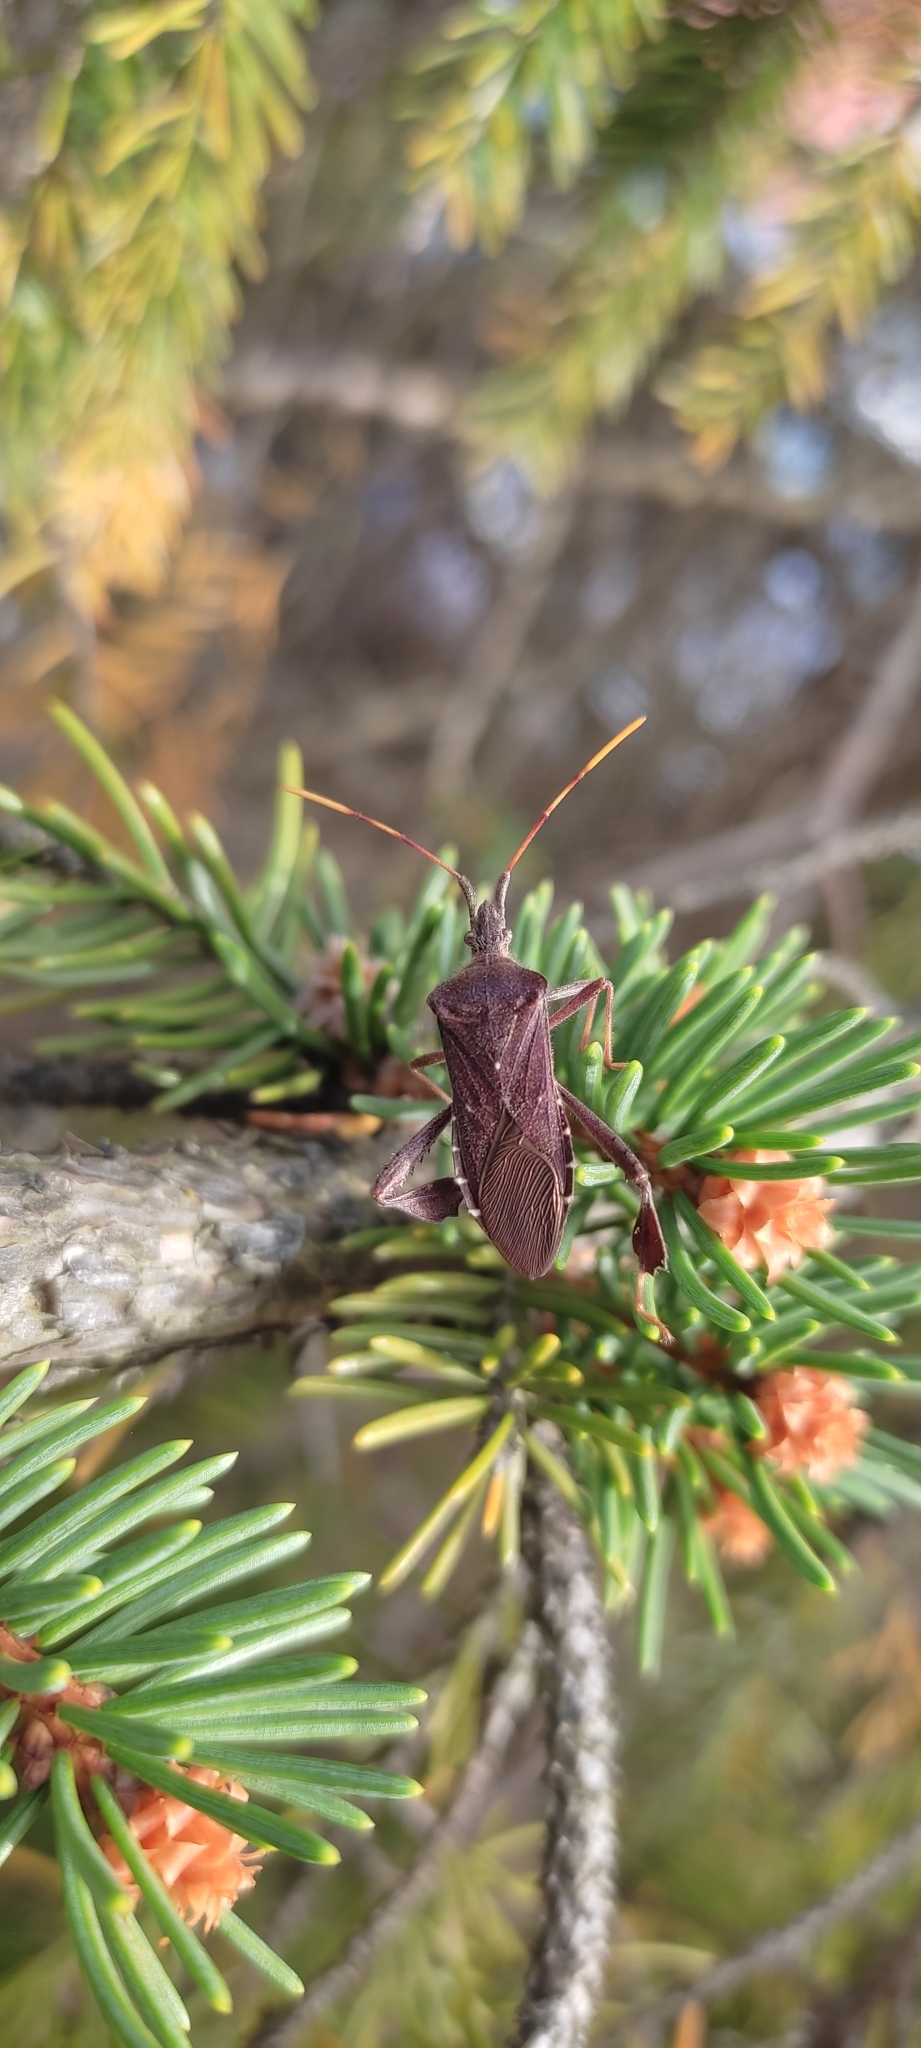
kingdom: Animalia
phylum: Arthropoda
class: Insecta
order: Hemiptera
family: Coreidae
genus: Leptoglossus
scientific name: Leptoglossus oppositus
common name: Northern leaf-footed bug
